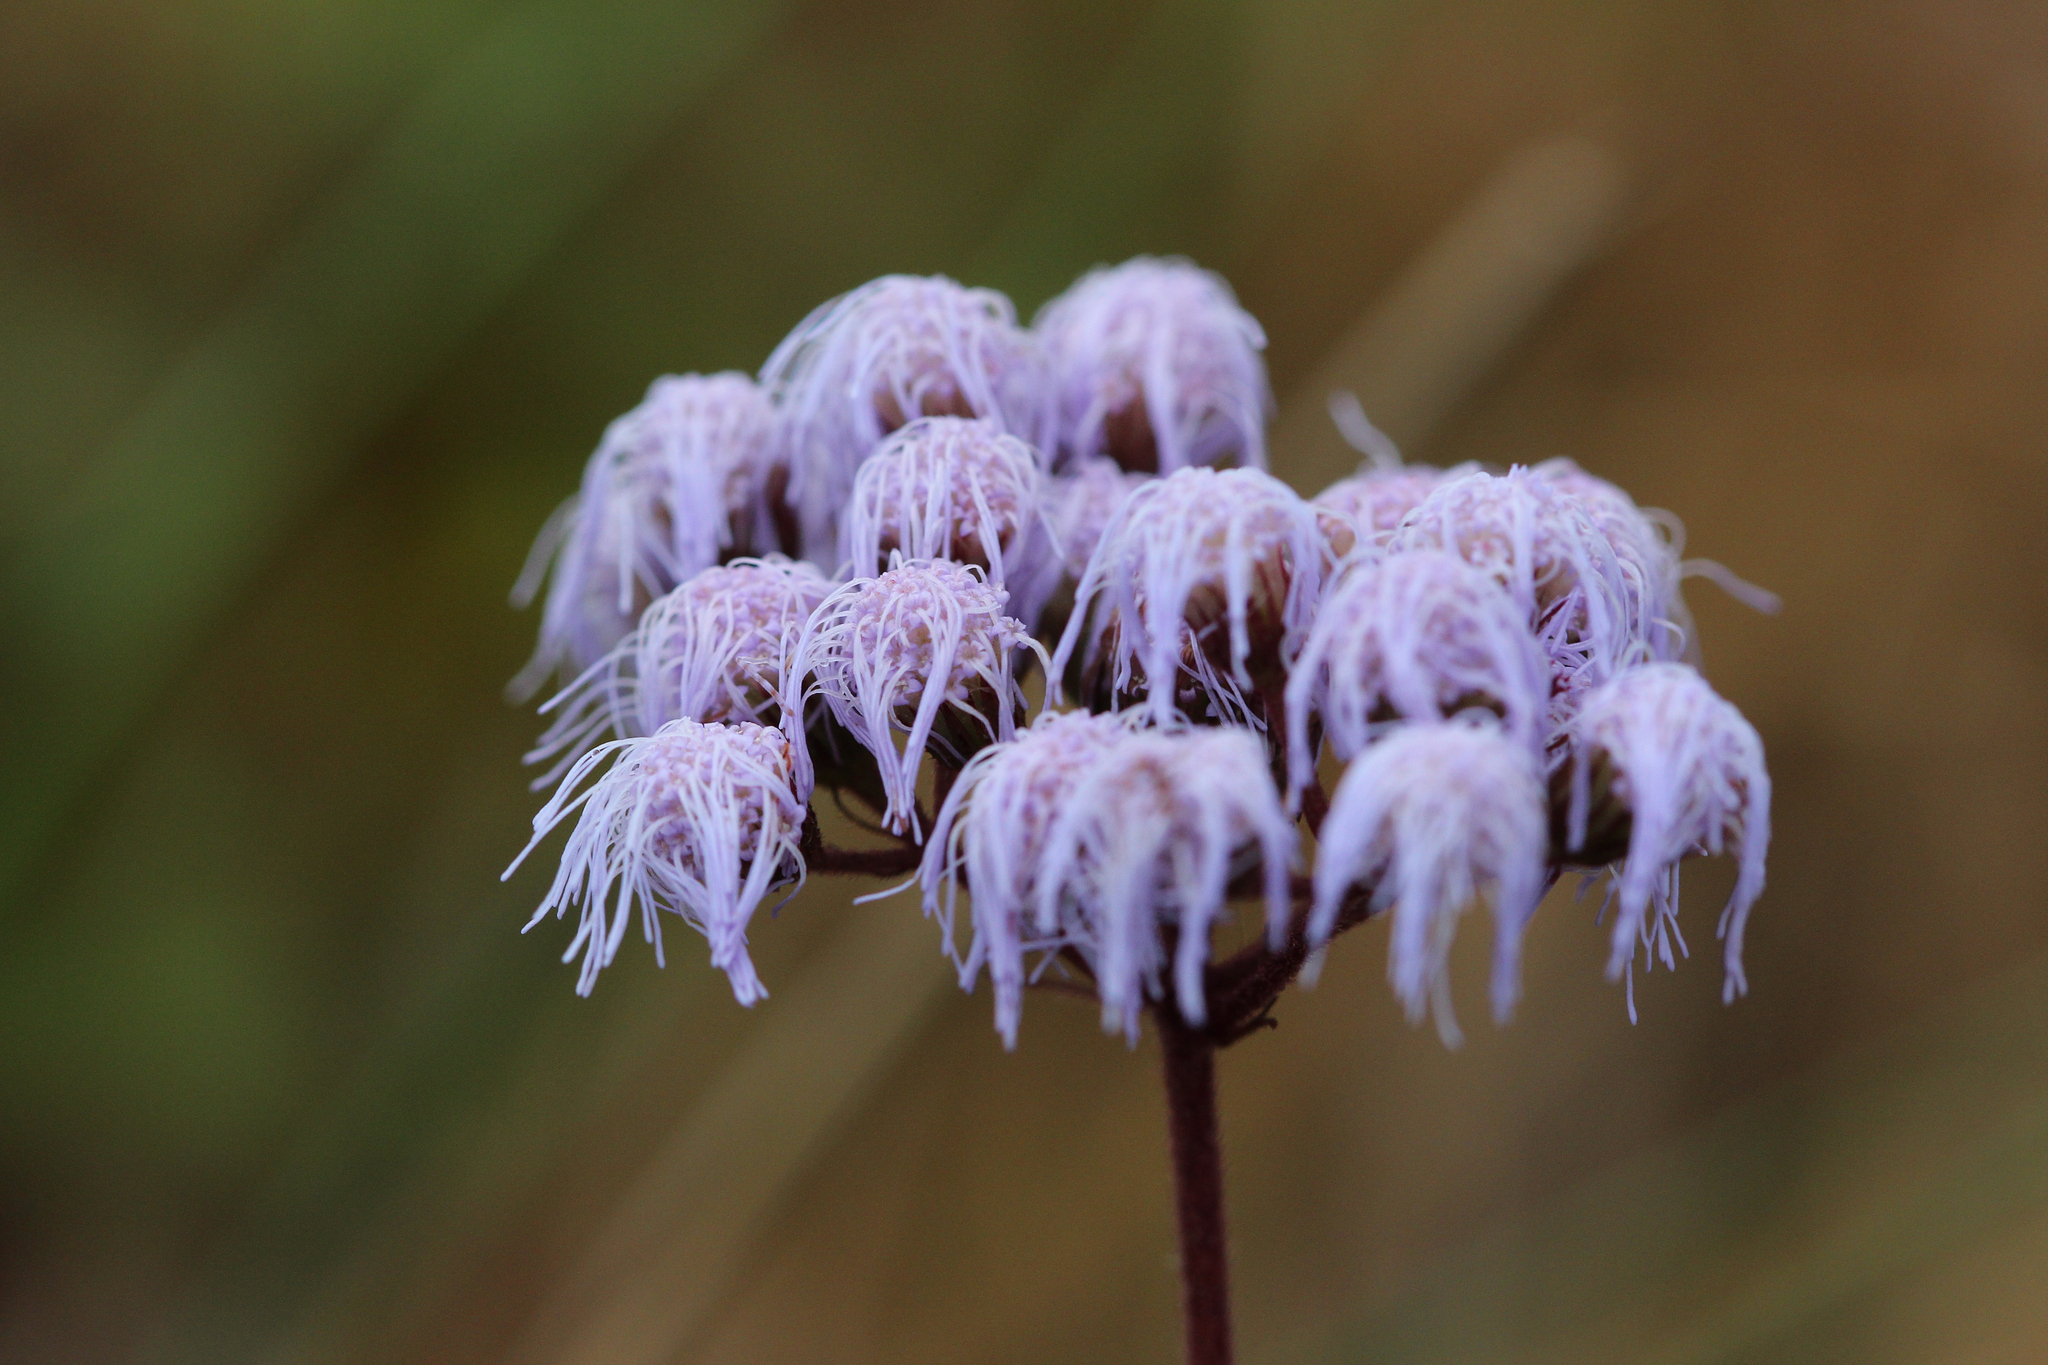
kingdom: Plantae
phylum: Tracheophyta
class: Magnoliopsida
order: Asterales
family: Asteraceae
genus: Conoclinium
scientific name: Conoclinium coelestinum
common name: Blue mistflower
